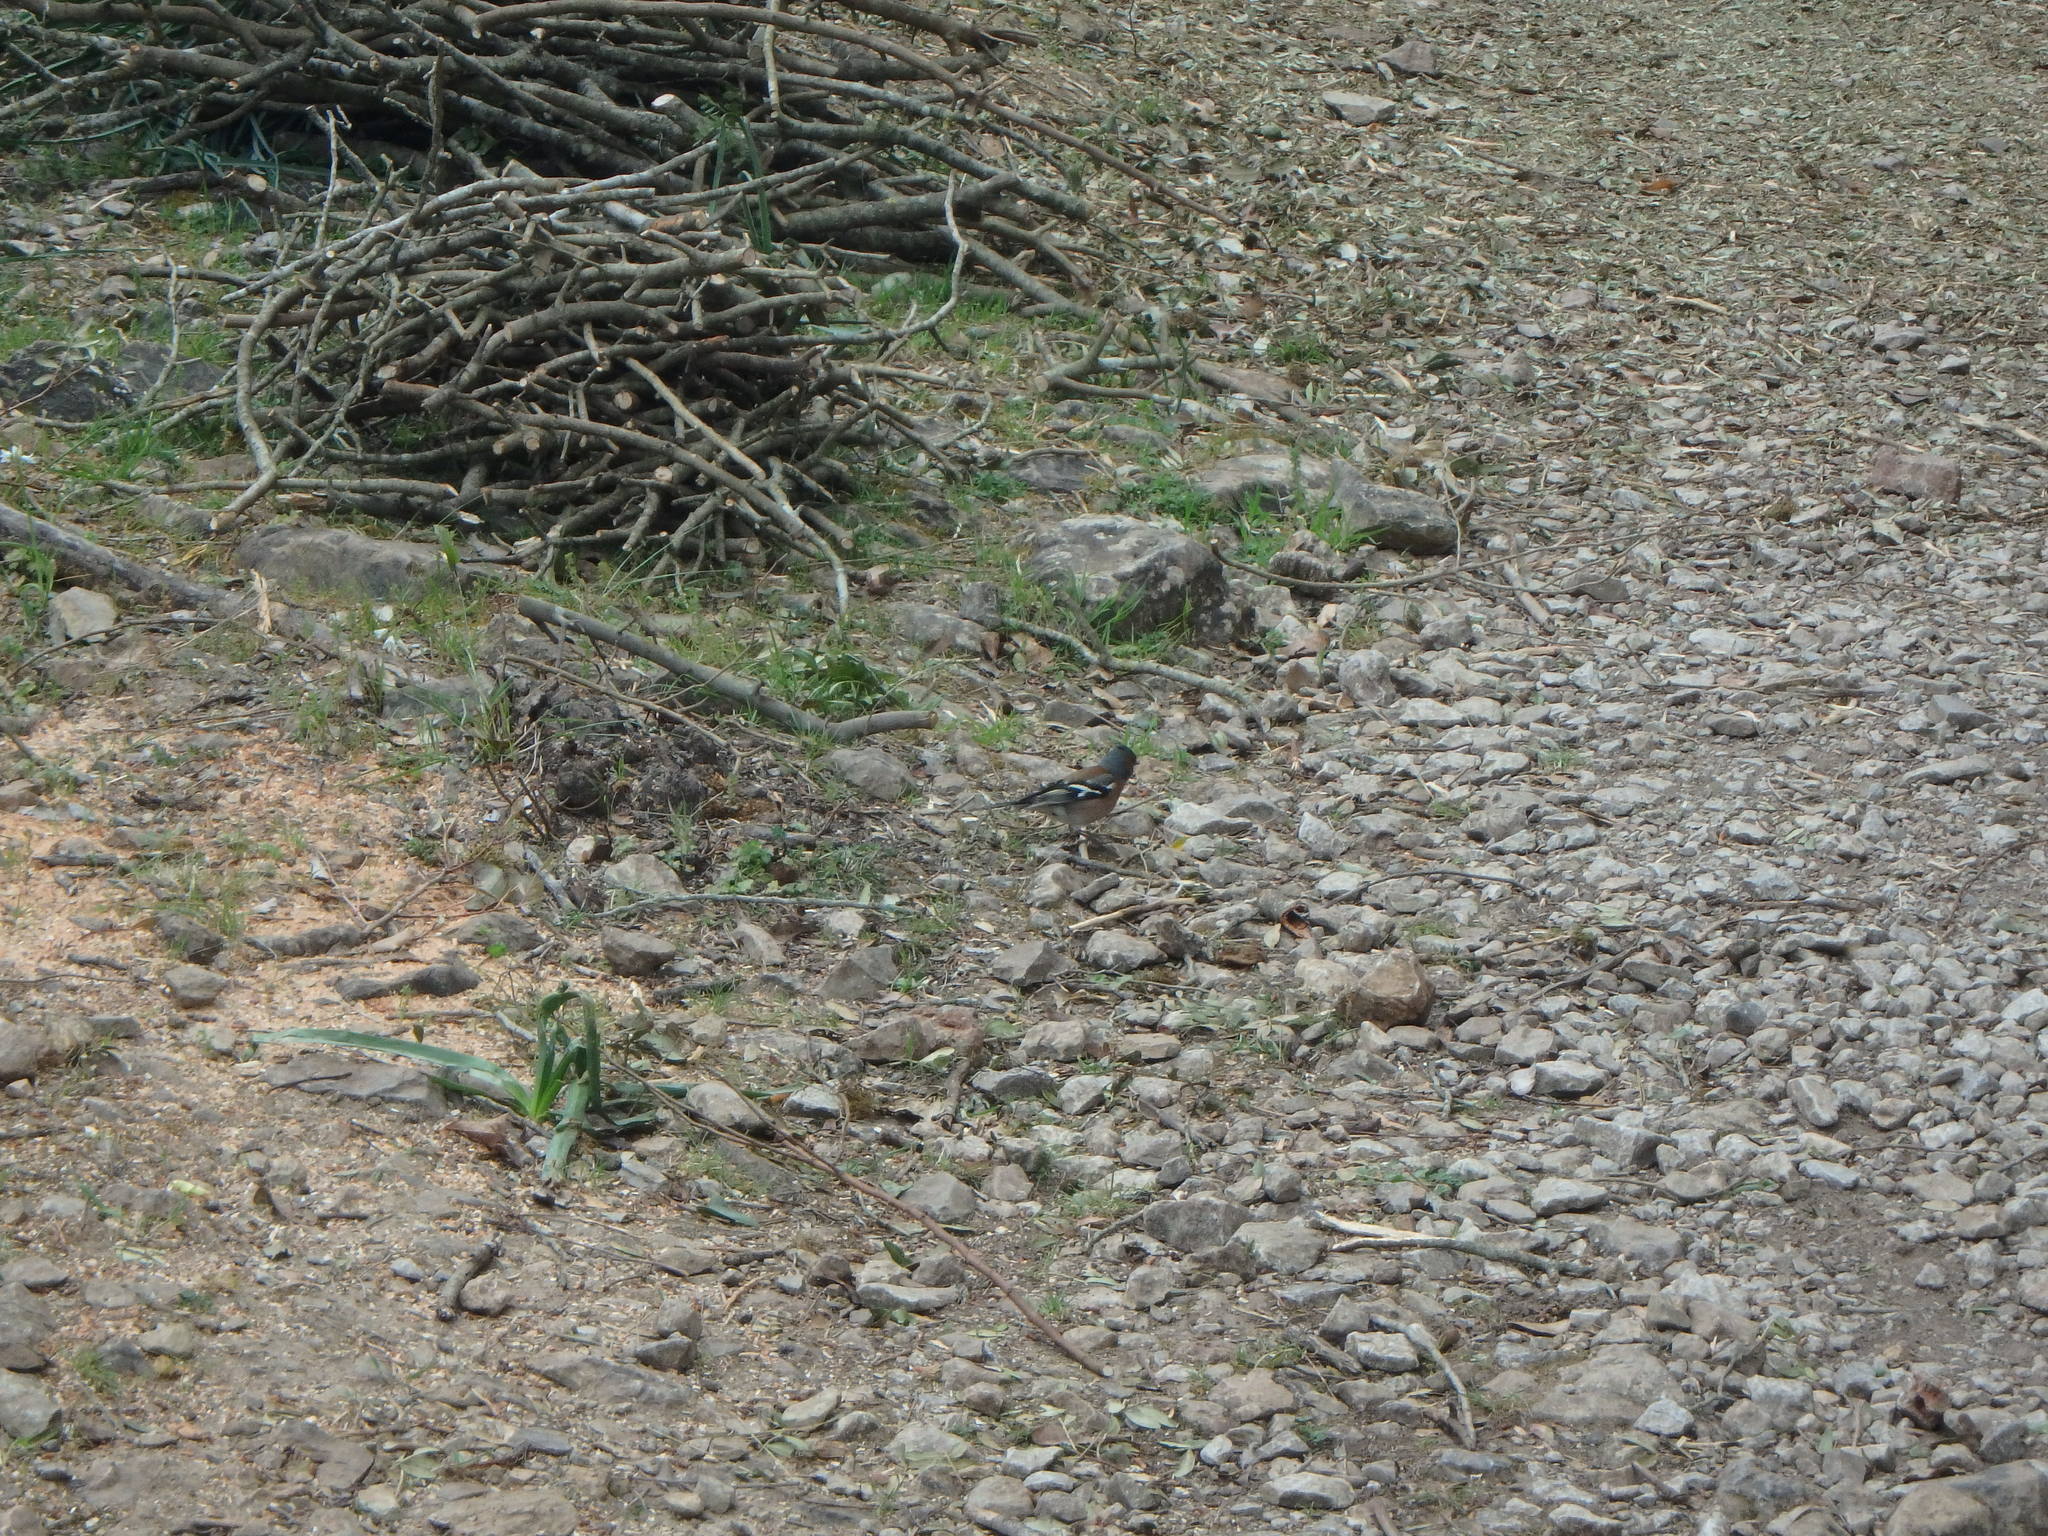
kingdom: Animalia
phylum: Chordata
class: Aves
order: Passeriformes
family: Fringillidae
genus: Fringilla
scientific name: Fringilla coelebs
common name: Common chaffinch
